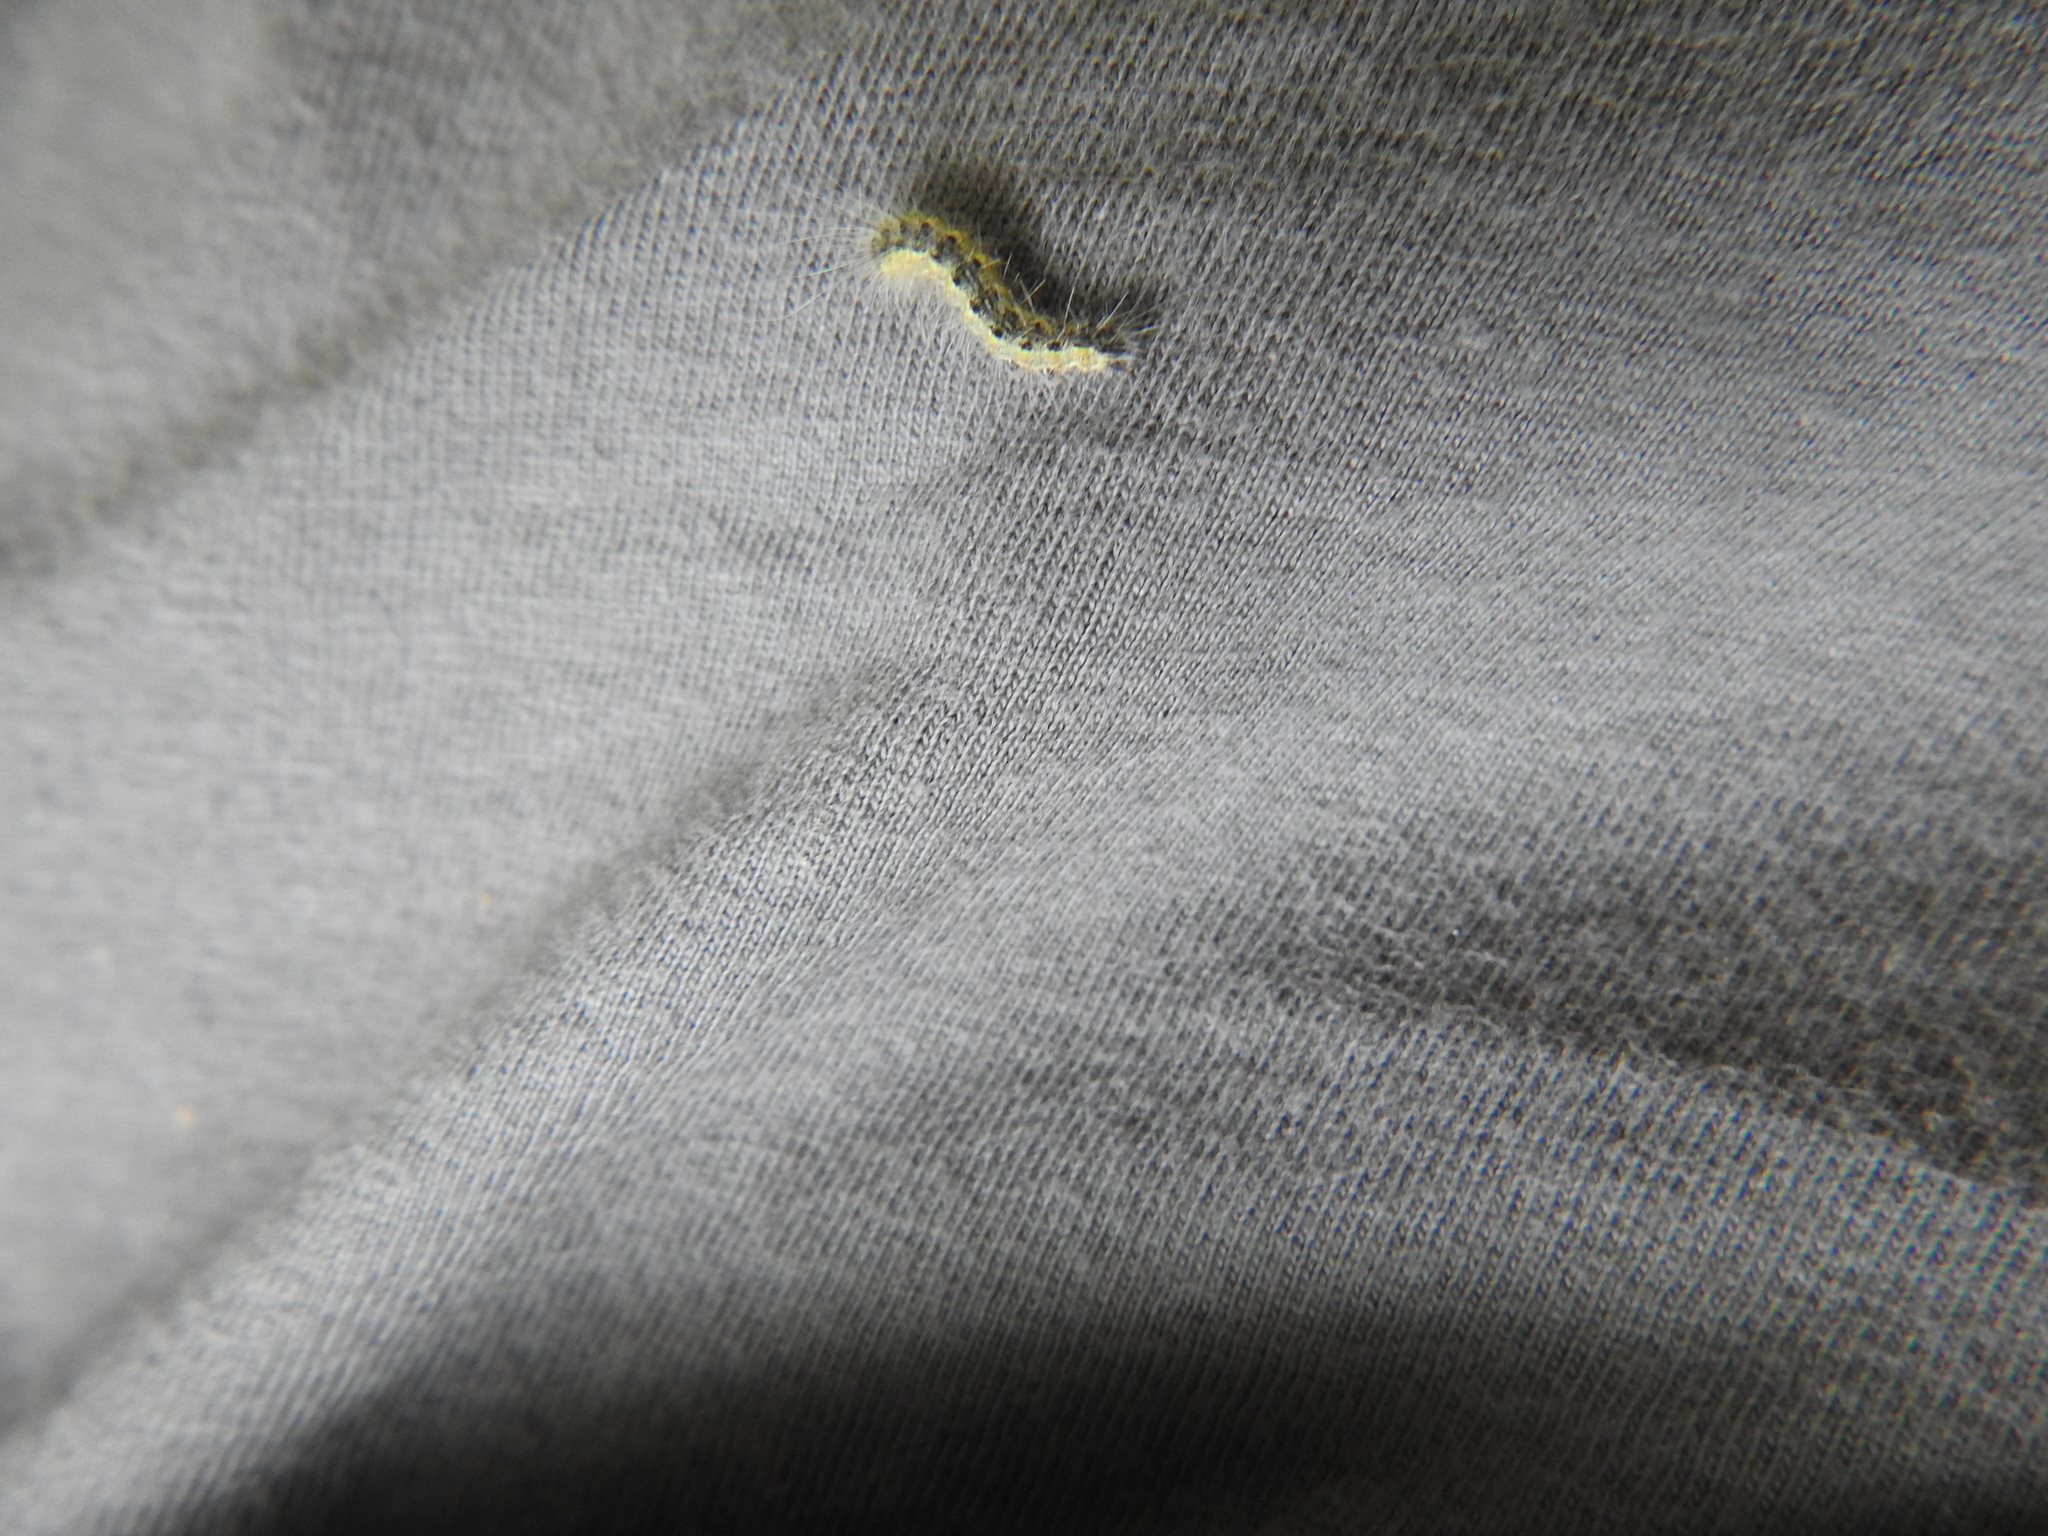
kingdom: Animalia
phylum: Arthropoda
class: Insecta
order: Lepidoptera
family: Erebidae
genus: Hyphantria
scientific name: Hyphantria cunea
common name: American white moth
